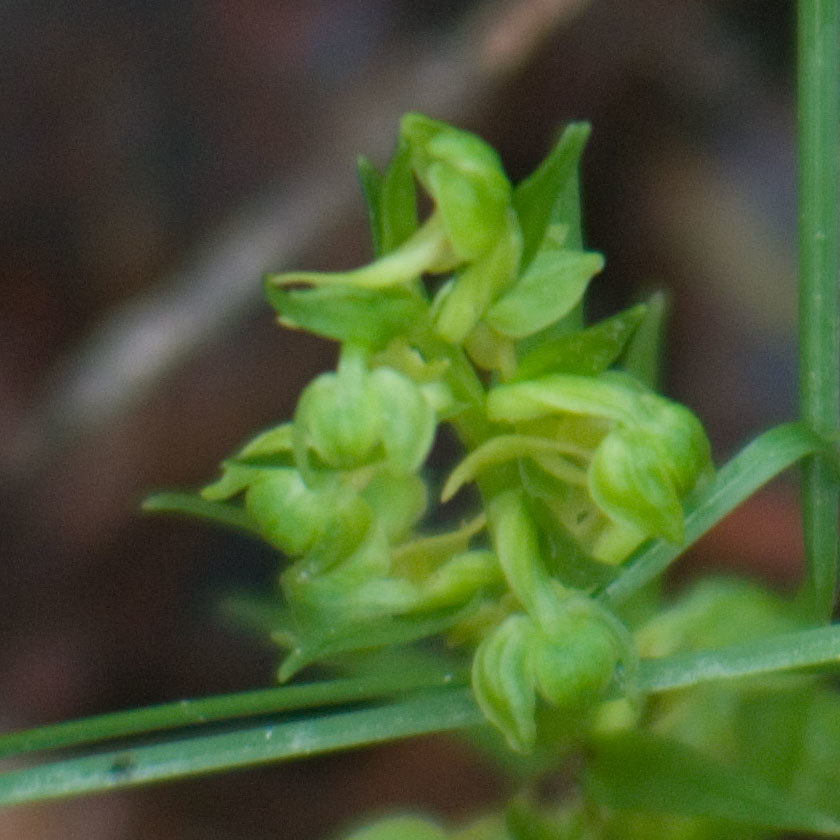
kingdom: Plantae
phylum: Tracheophyta
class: Liliopsida
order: Asparagales
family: Orchidaceae
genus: Dactylorhiza
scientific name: Dactylorhiza viridis
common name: Longbract frog orchid
